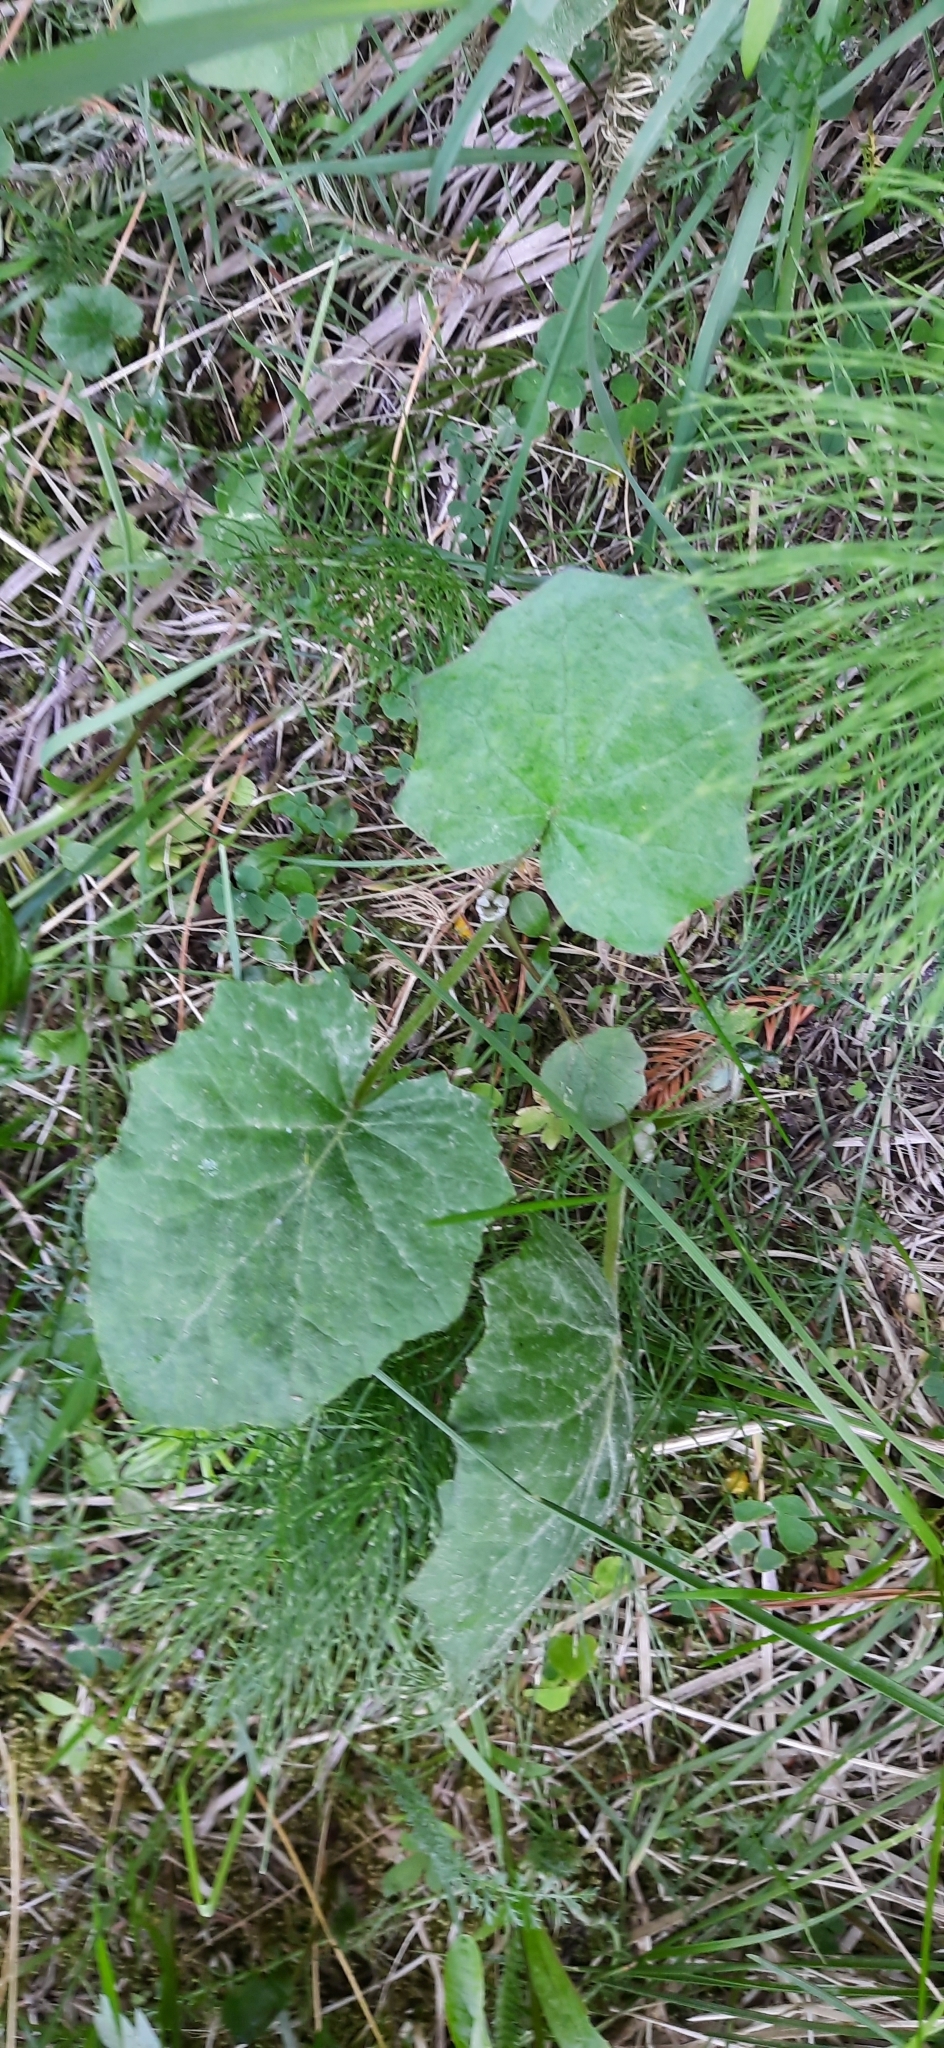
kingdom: Plantae
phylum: Tracheophyta
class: Magnoliopsida
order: Asterales
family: Asteraceae
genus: Tussilago
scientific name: Tussilago farfara
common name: Coltsfoot
